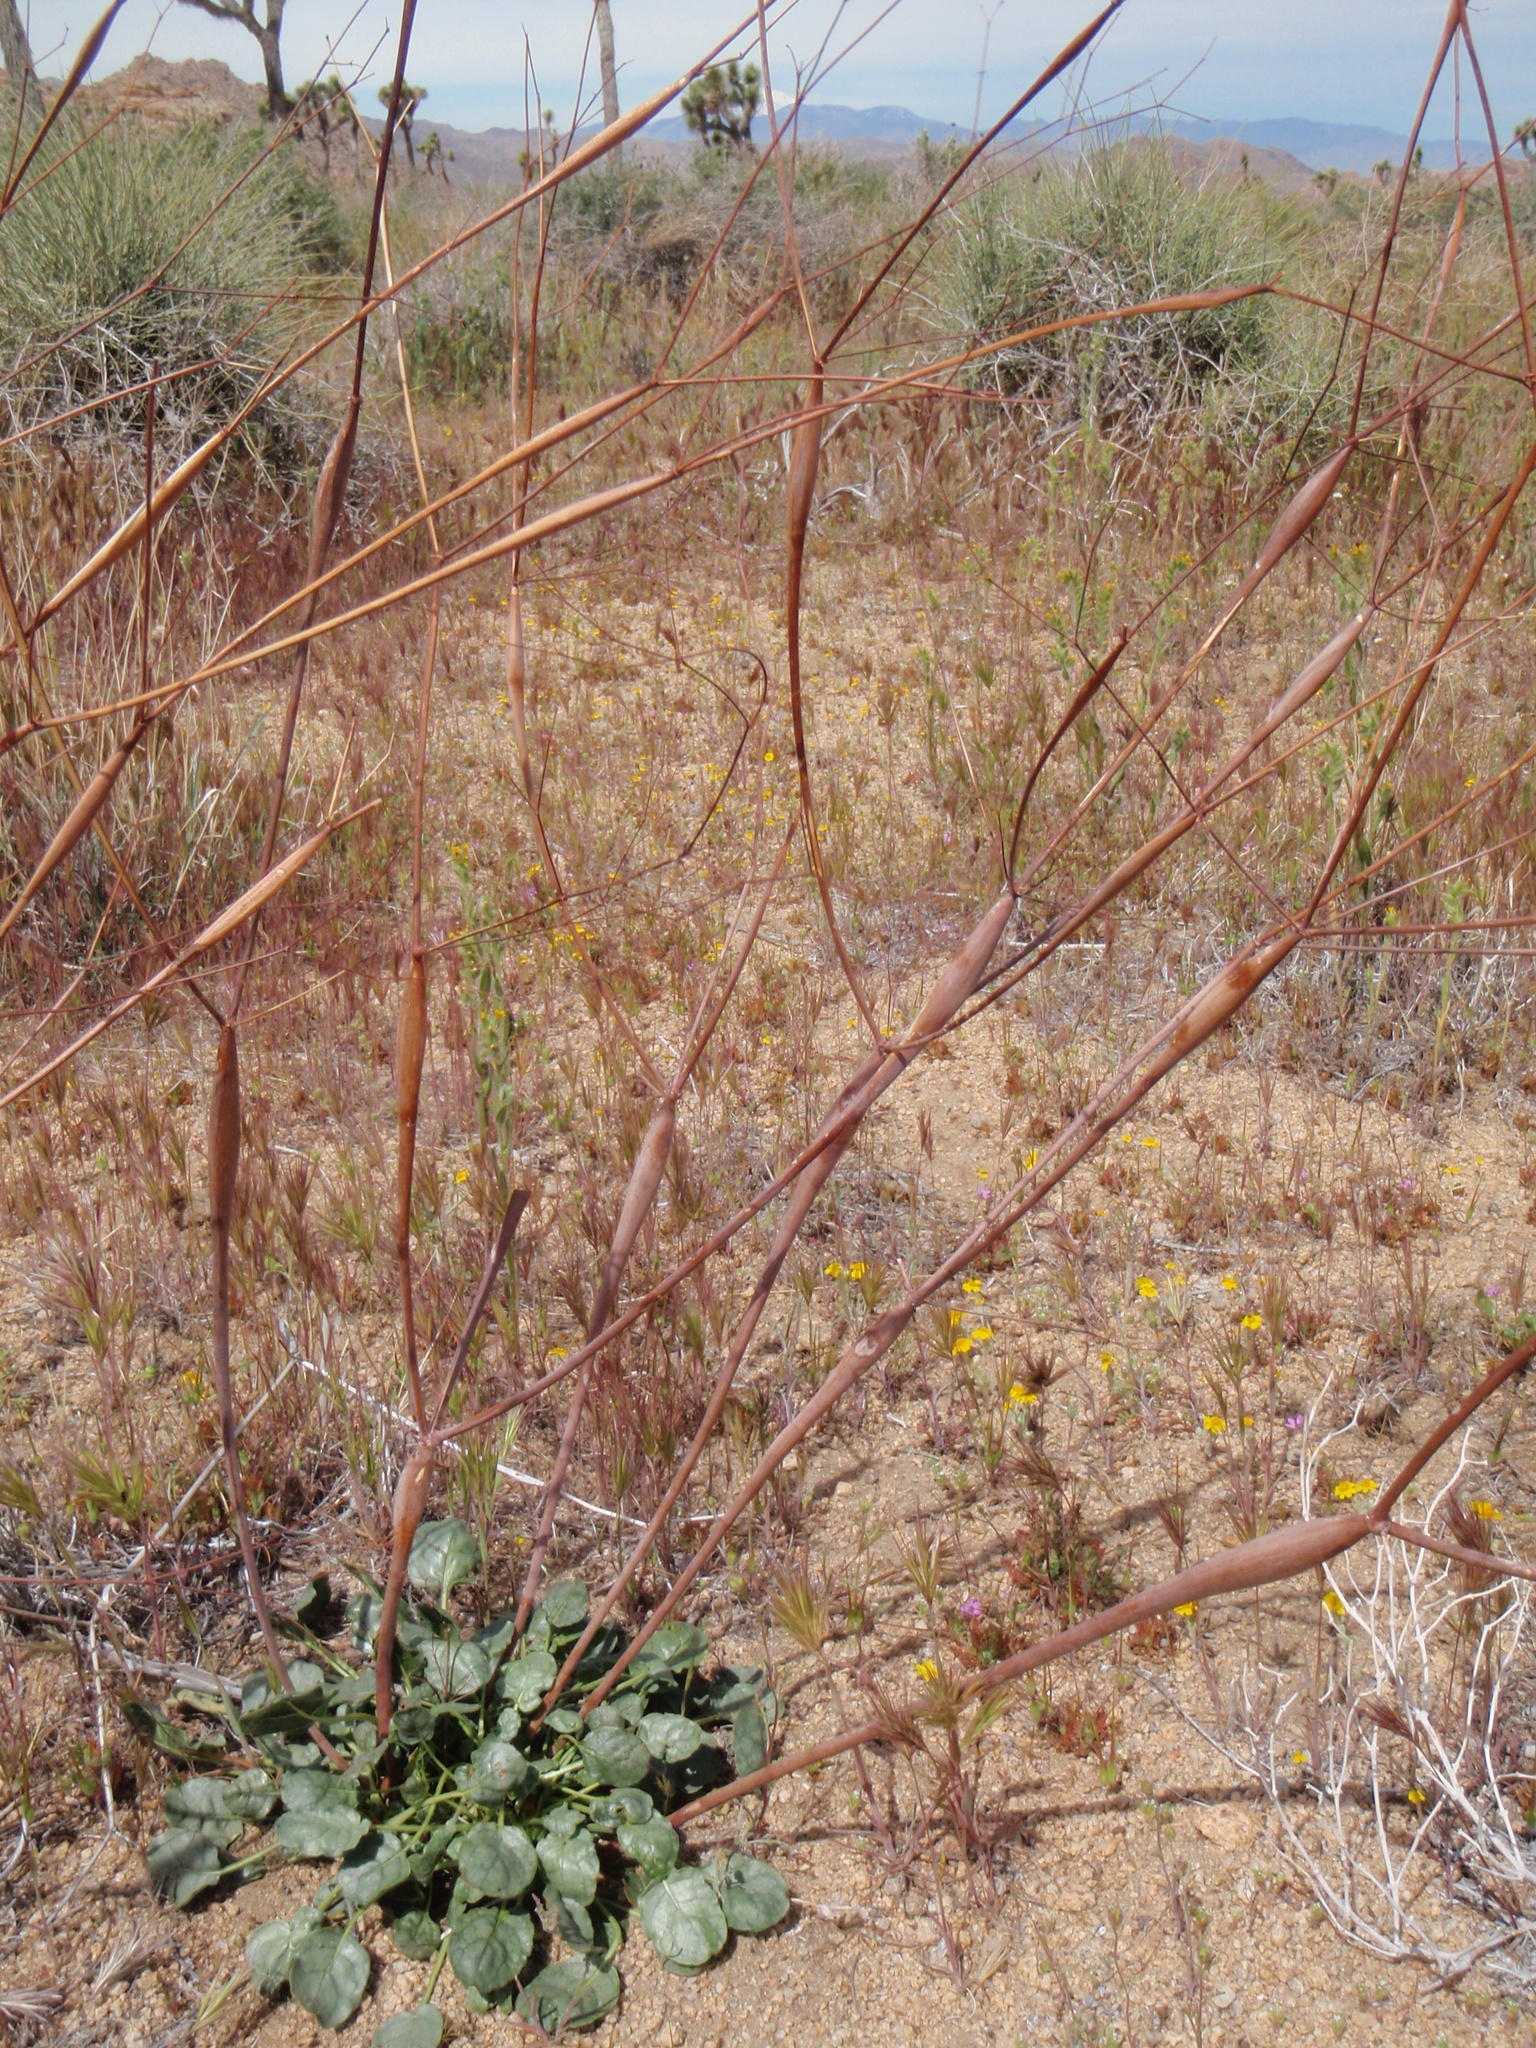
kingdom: Plantae
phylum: Tracheophyta
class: Magnoliopsida
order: Caryophyllales
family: Polygonaceae
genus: Eriogonum
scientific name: Eriogonum inflatum
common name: Desert trumpet
